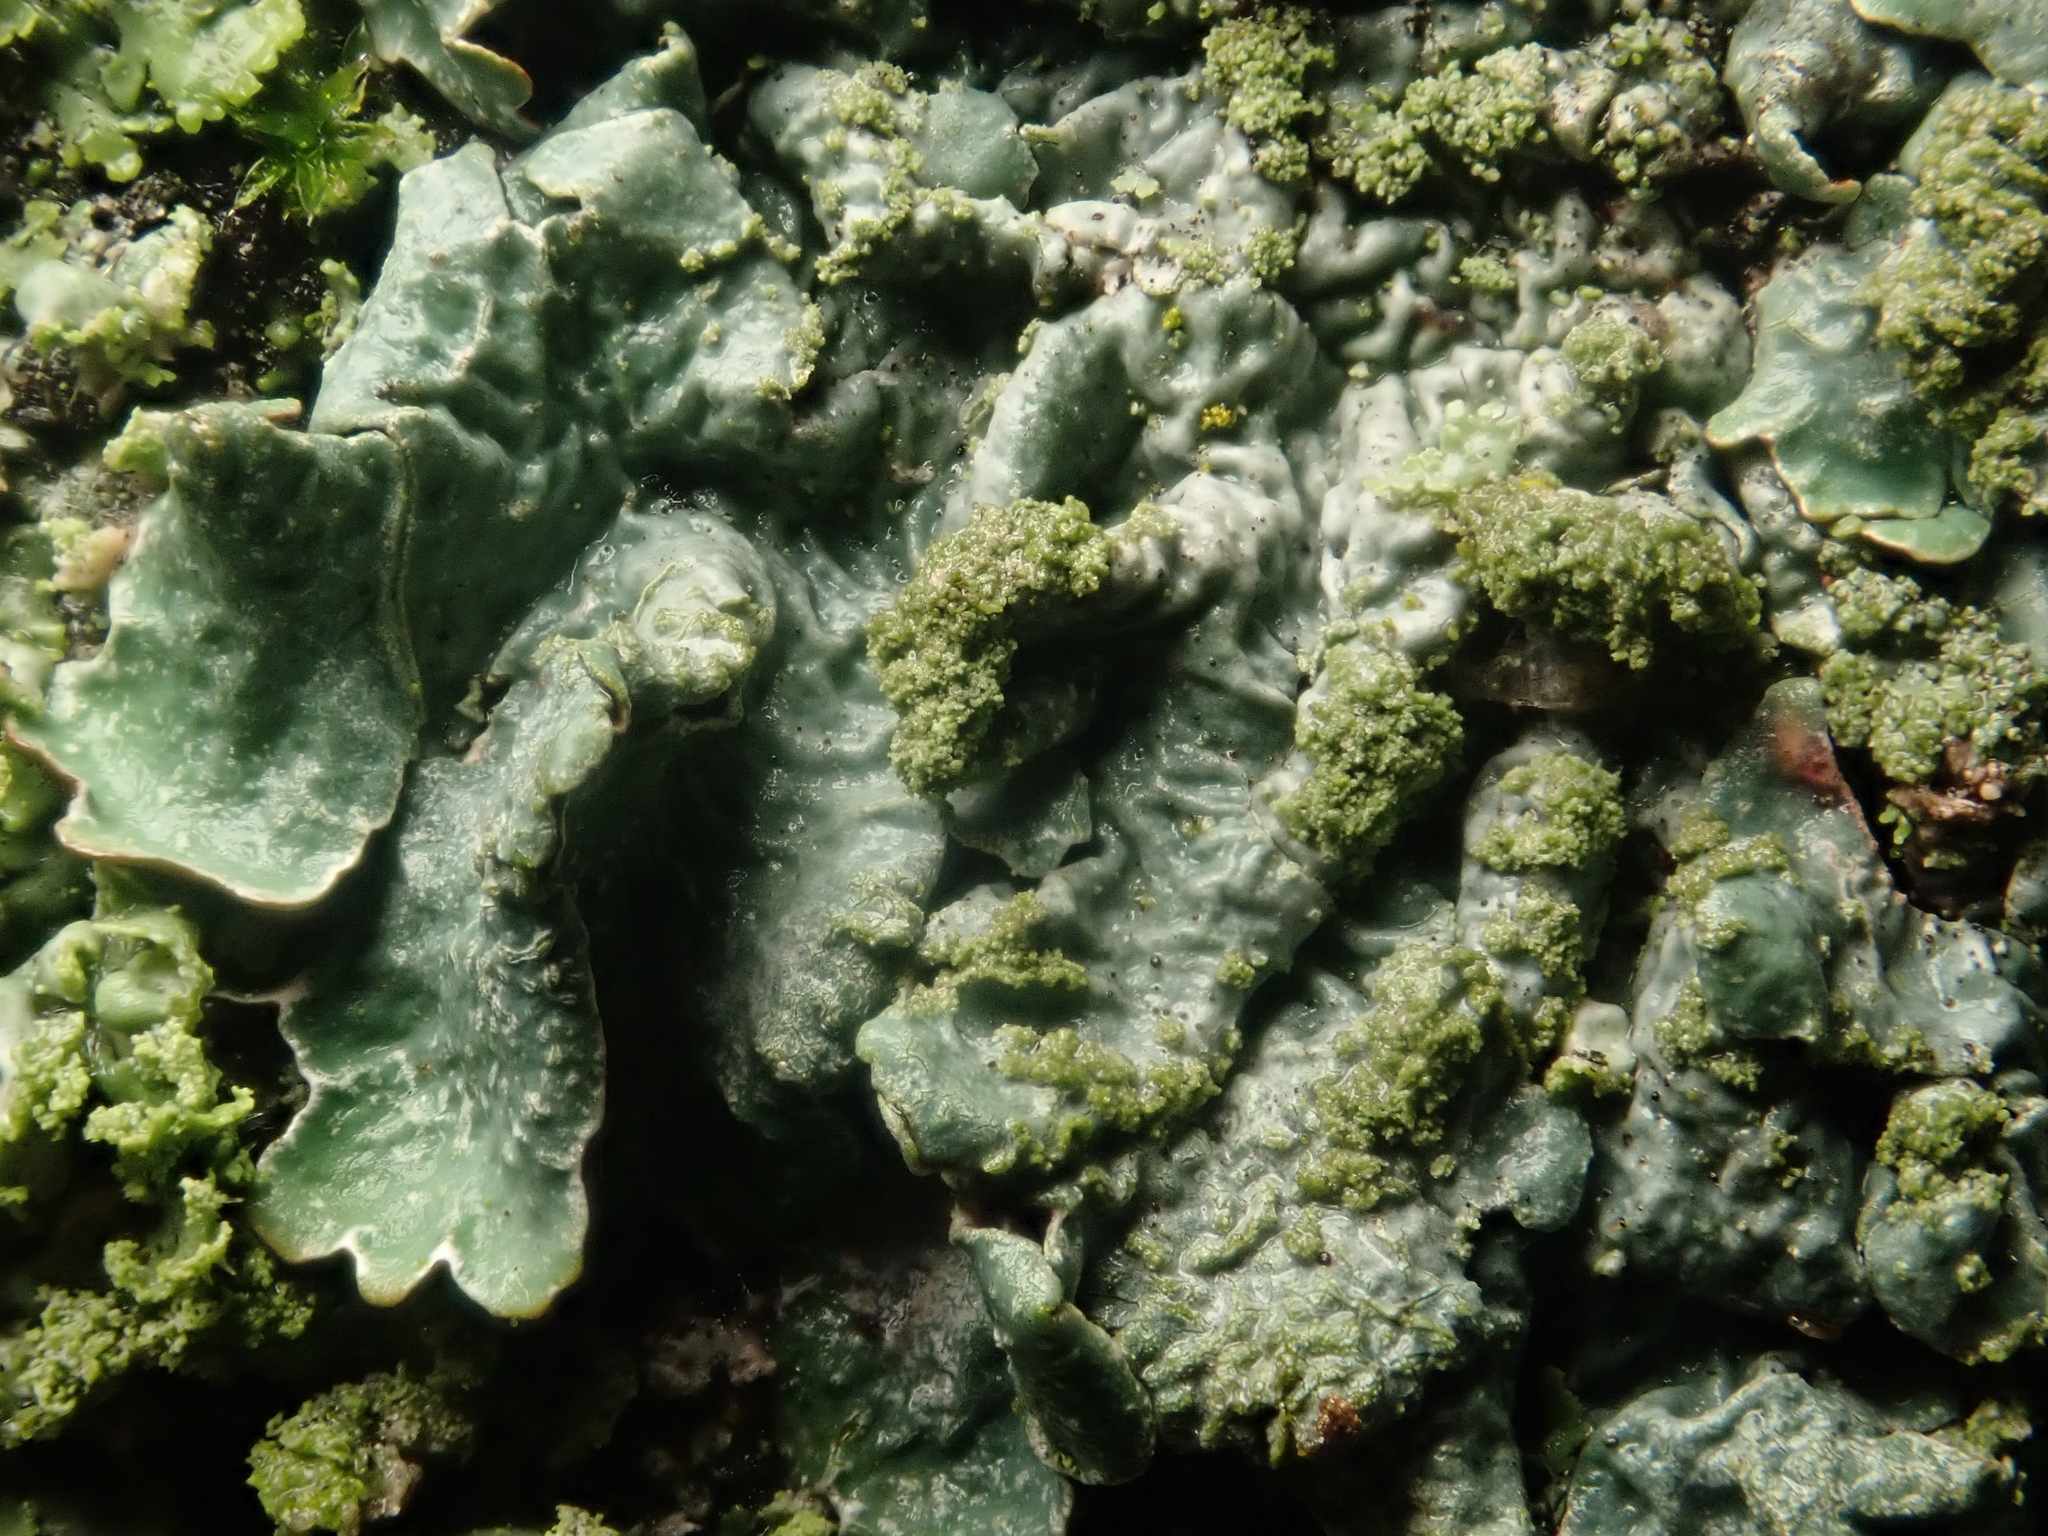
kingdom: Fungi
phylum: Ascomycota
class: Lecanoromycetes
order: Lecanorales
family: Parmeliaceae
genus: Parmelia
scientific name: Parmelia sulcata
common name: Netted shield lichen
